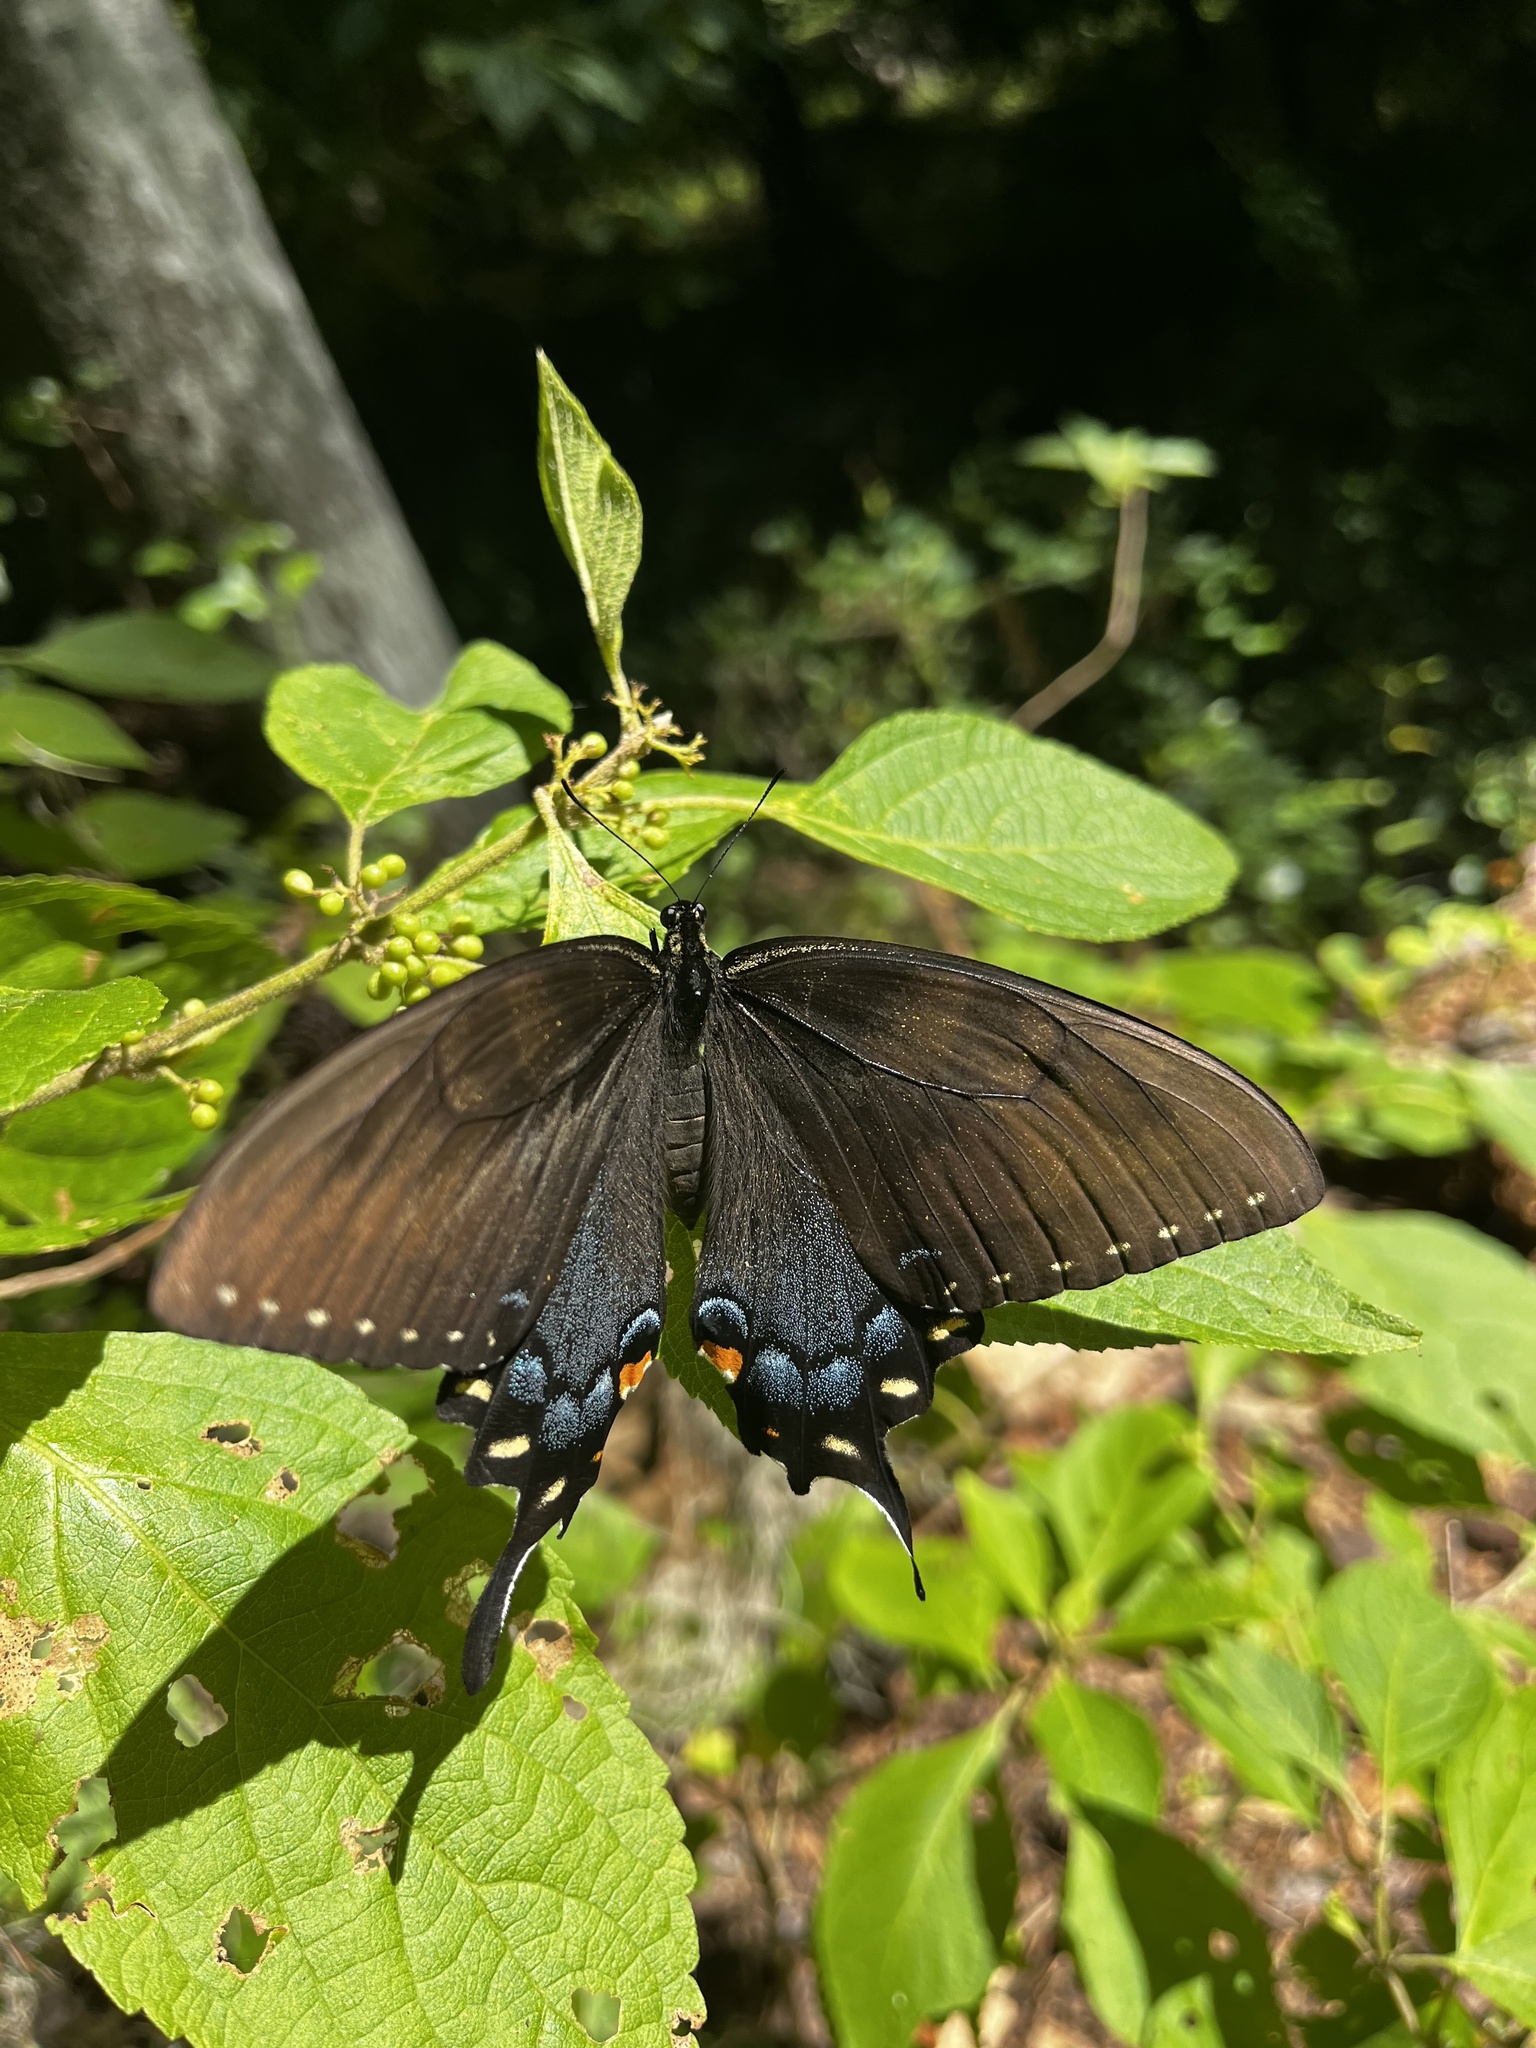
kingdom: Animalia
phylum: Arthropoda
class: Insecta
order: Lepidoptera
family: Papilionidae
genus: Papilio
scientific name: Papilio glaucus
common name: Tiger swallowtail
